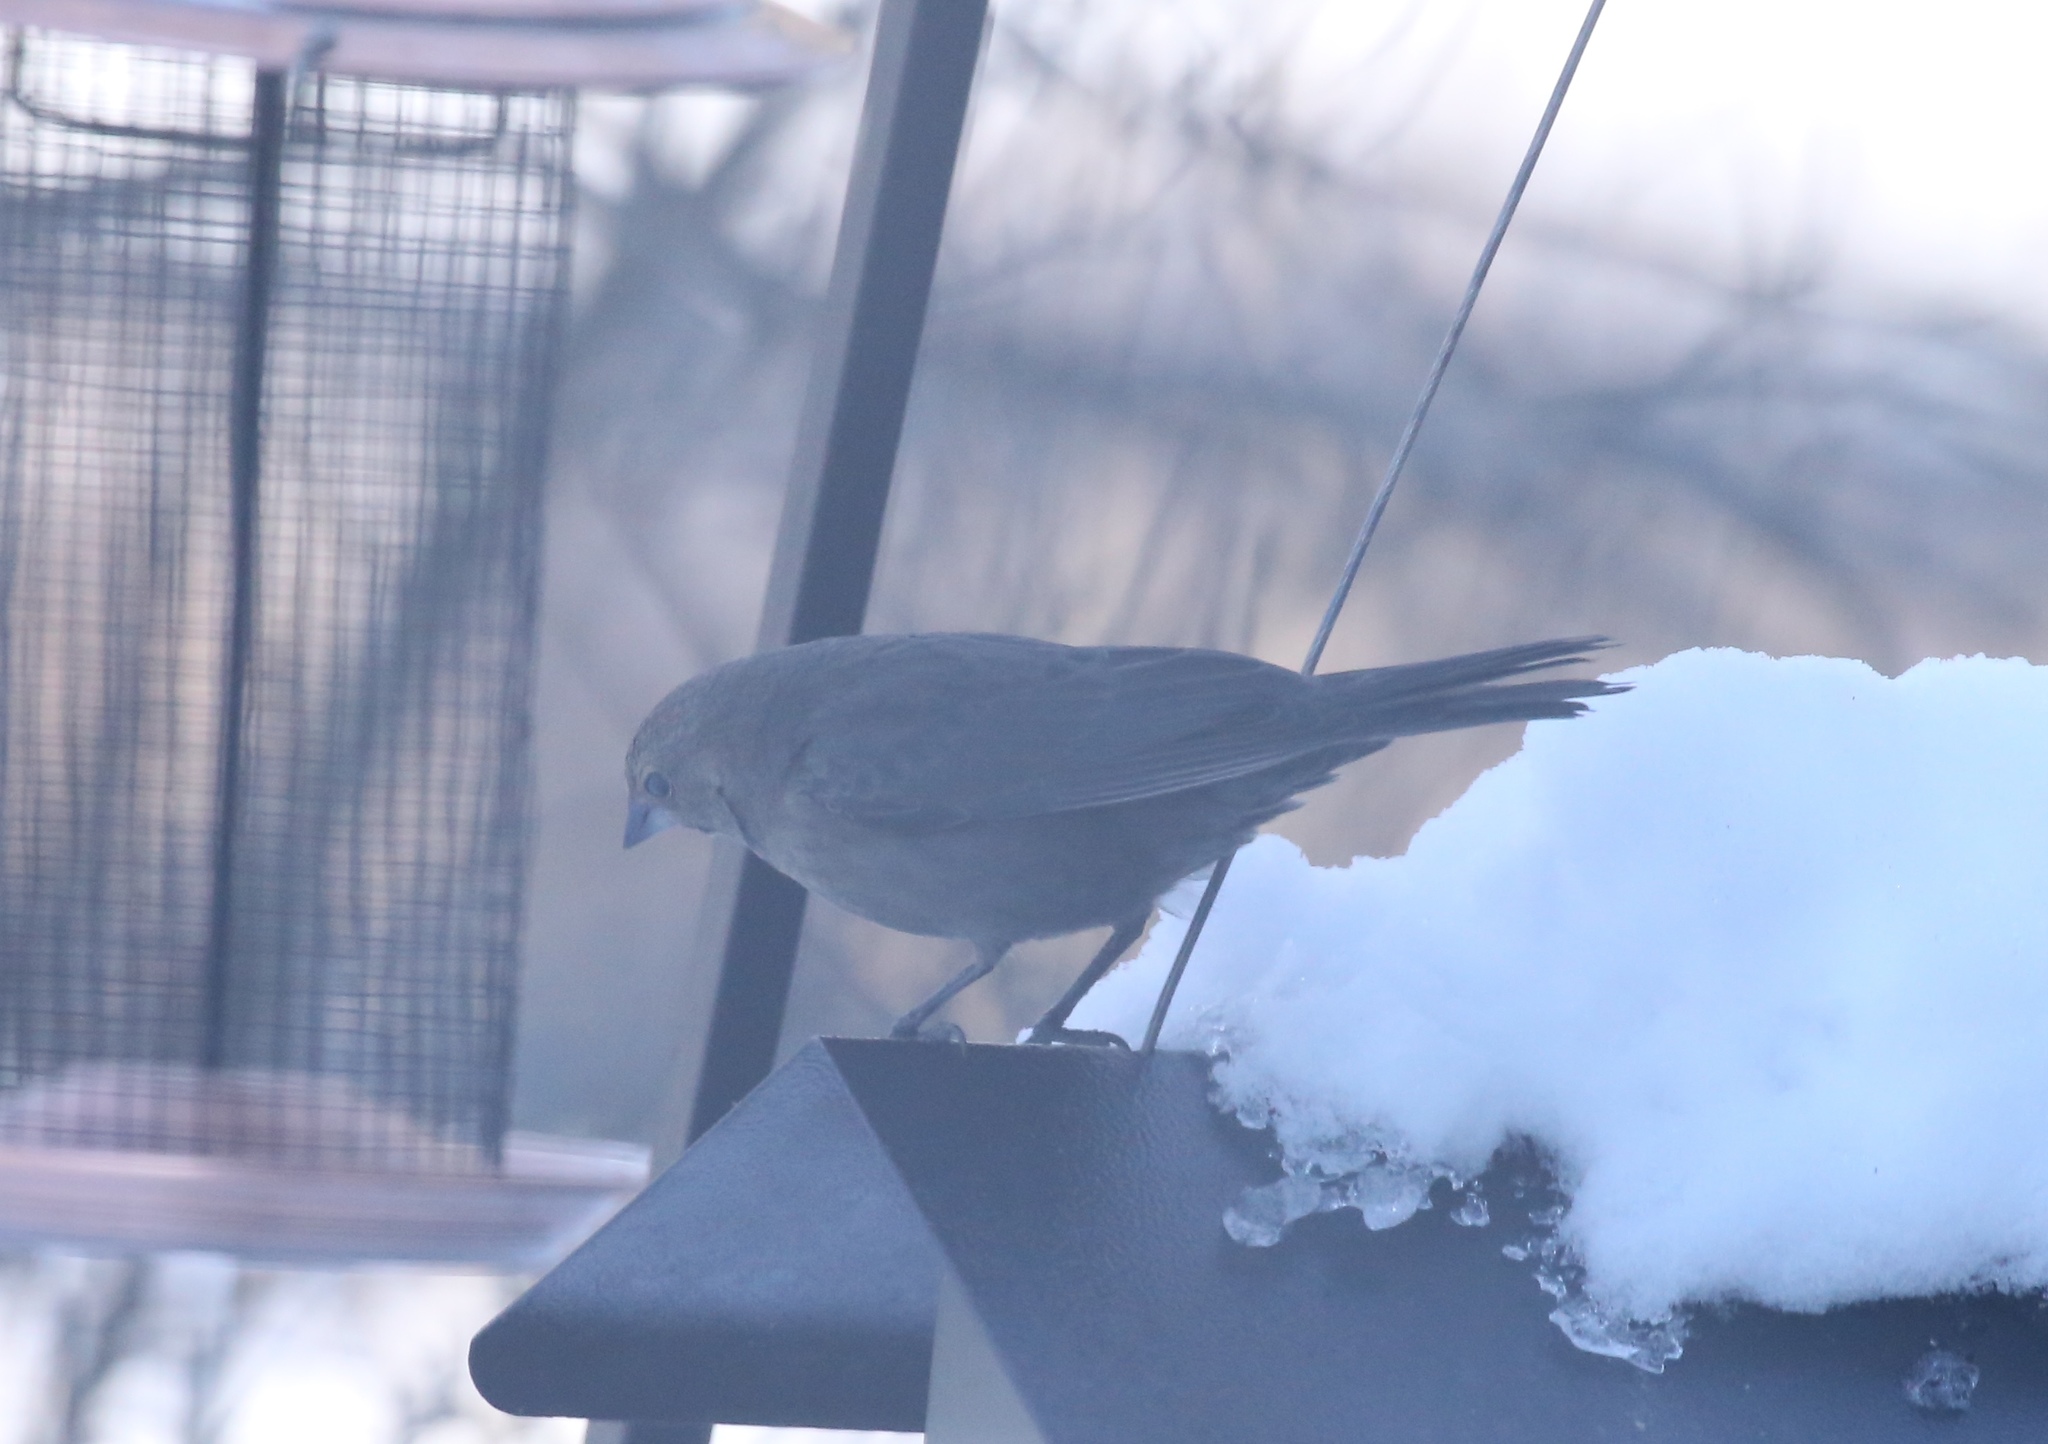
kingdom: Animalia
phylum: Chordata
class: Aves
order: Passeriformes
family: Icteridae
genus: Molothrus
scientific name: Molothrus ater
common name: Brown-headed cowbird
